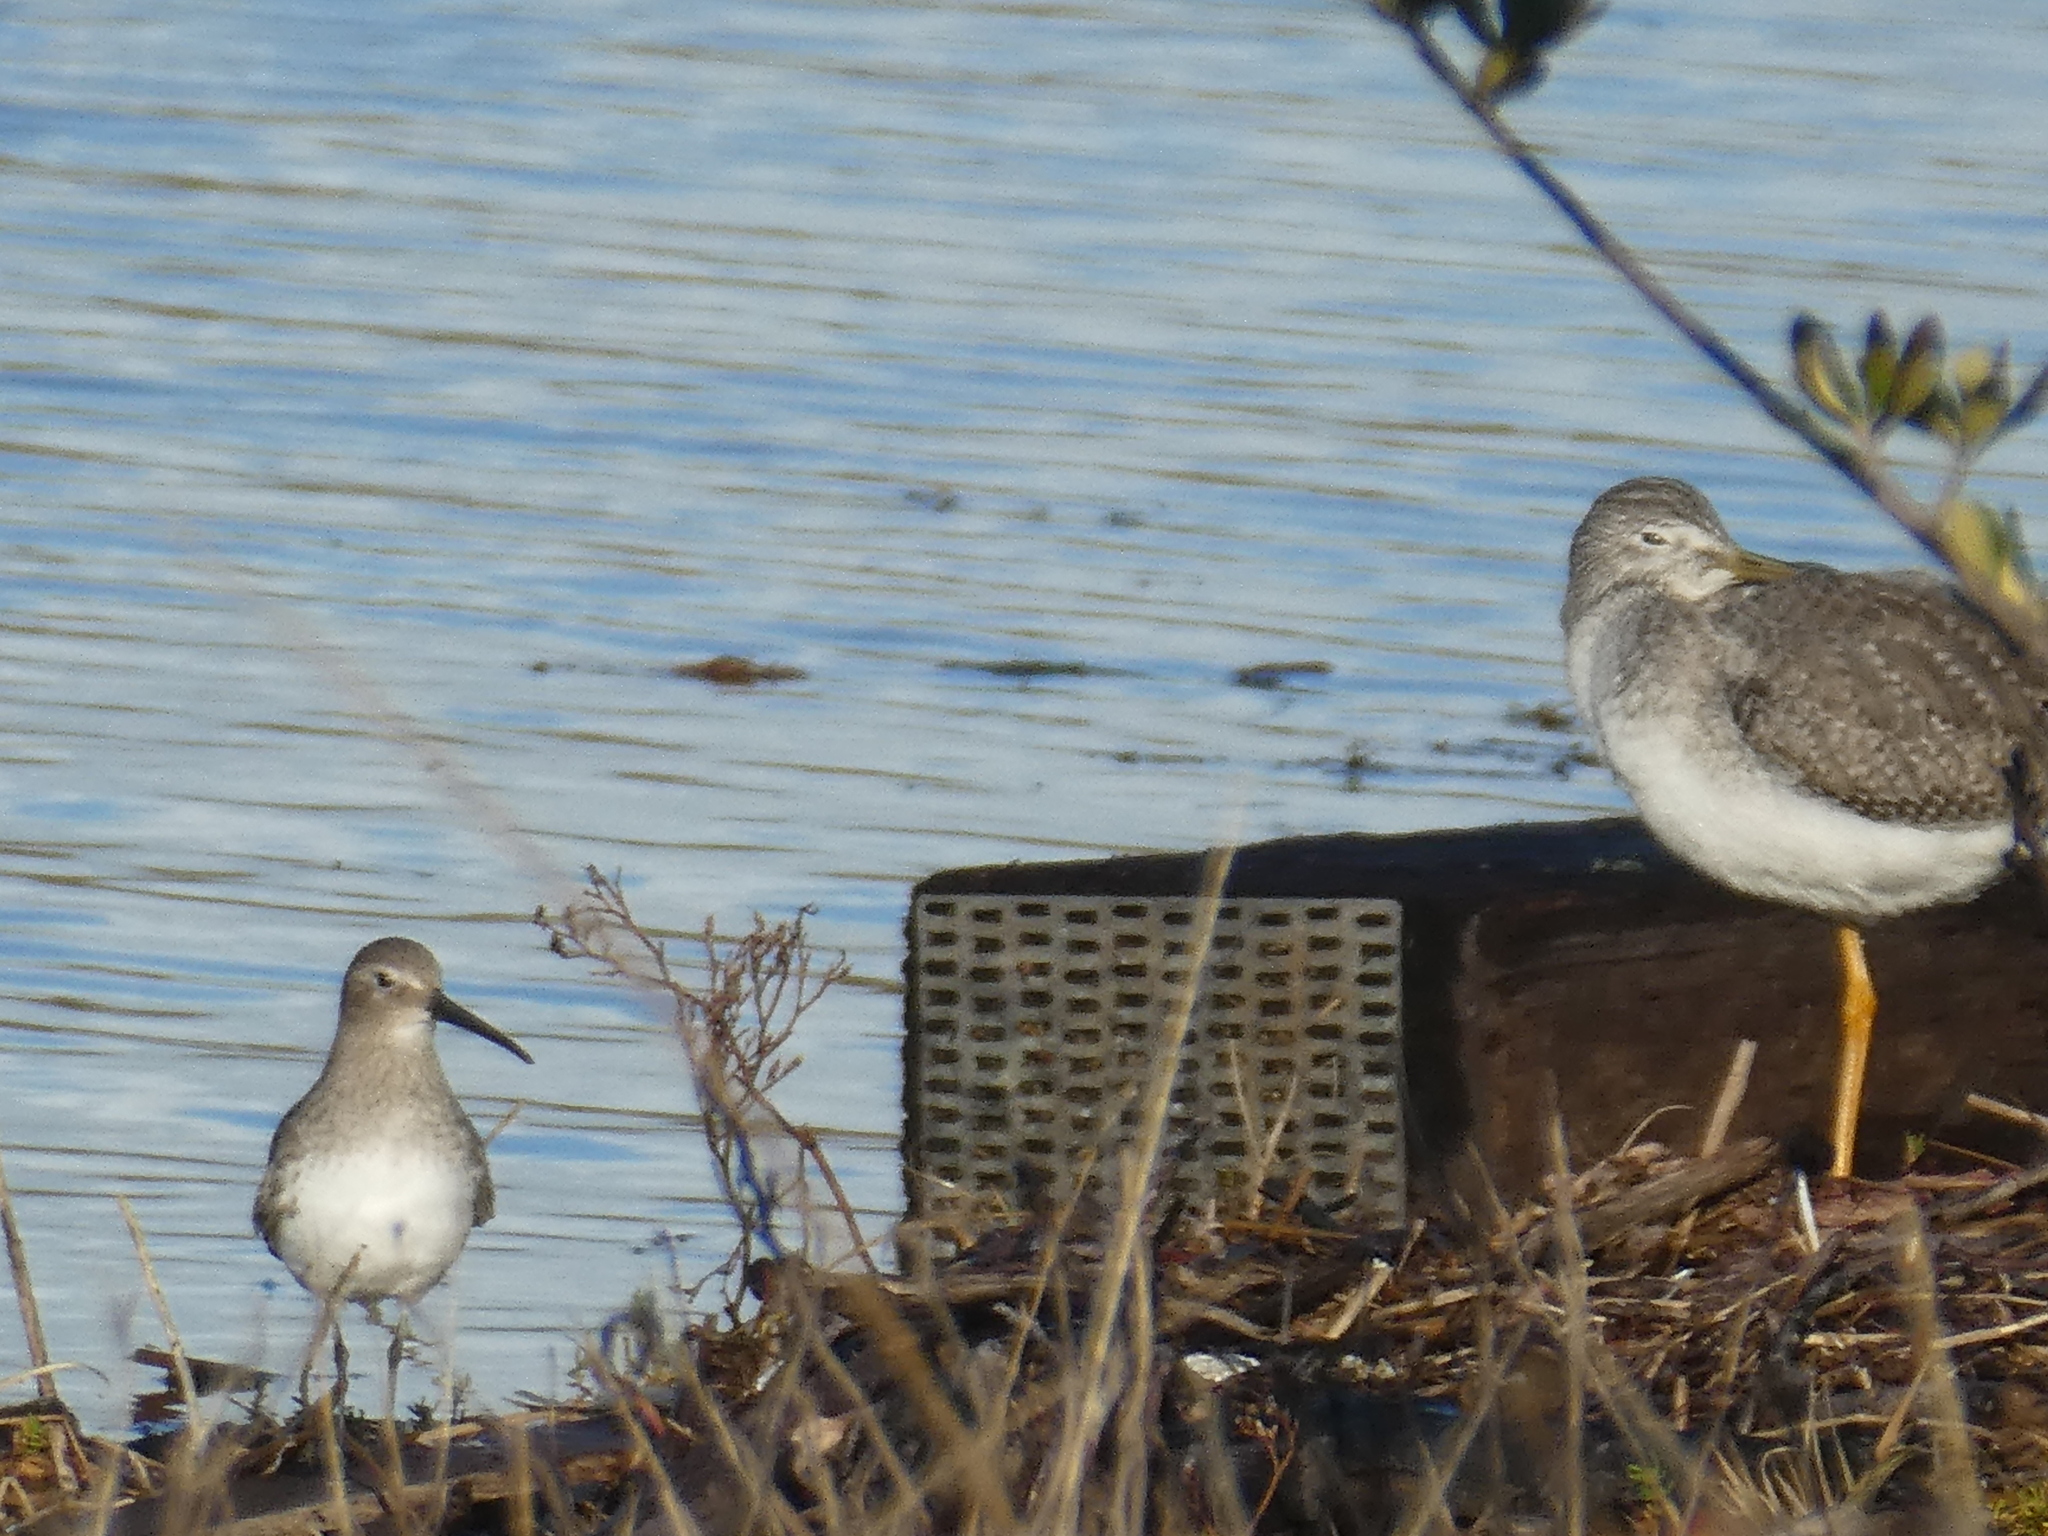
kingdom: Animalia
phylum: Chordata
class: Aves
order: Charadriiformes
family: Scolopacidae
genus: Calidris
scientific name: Calidris alpina
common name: Dunlin
